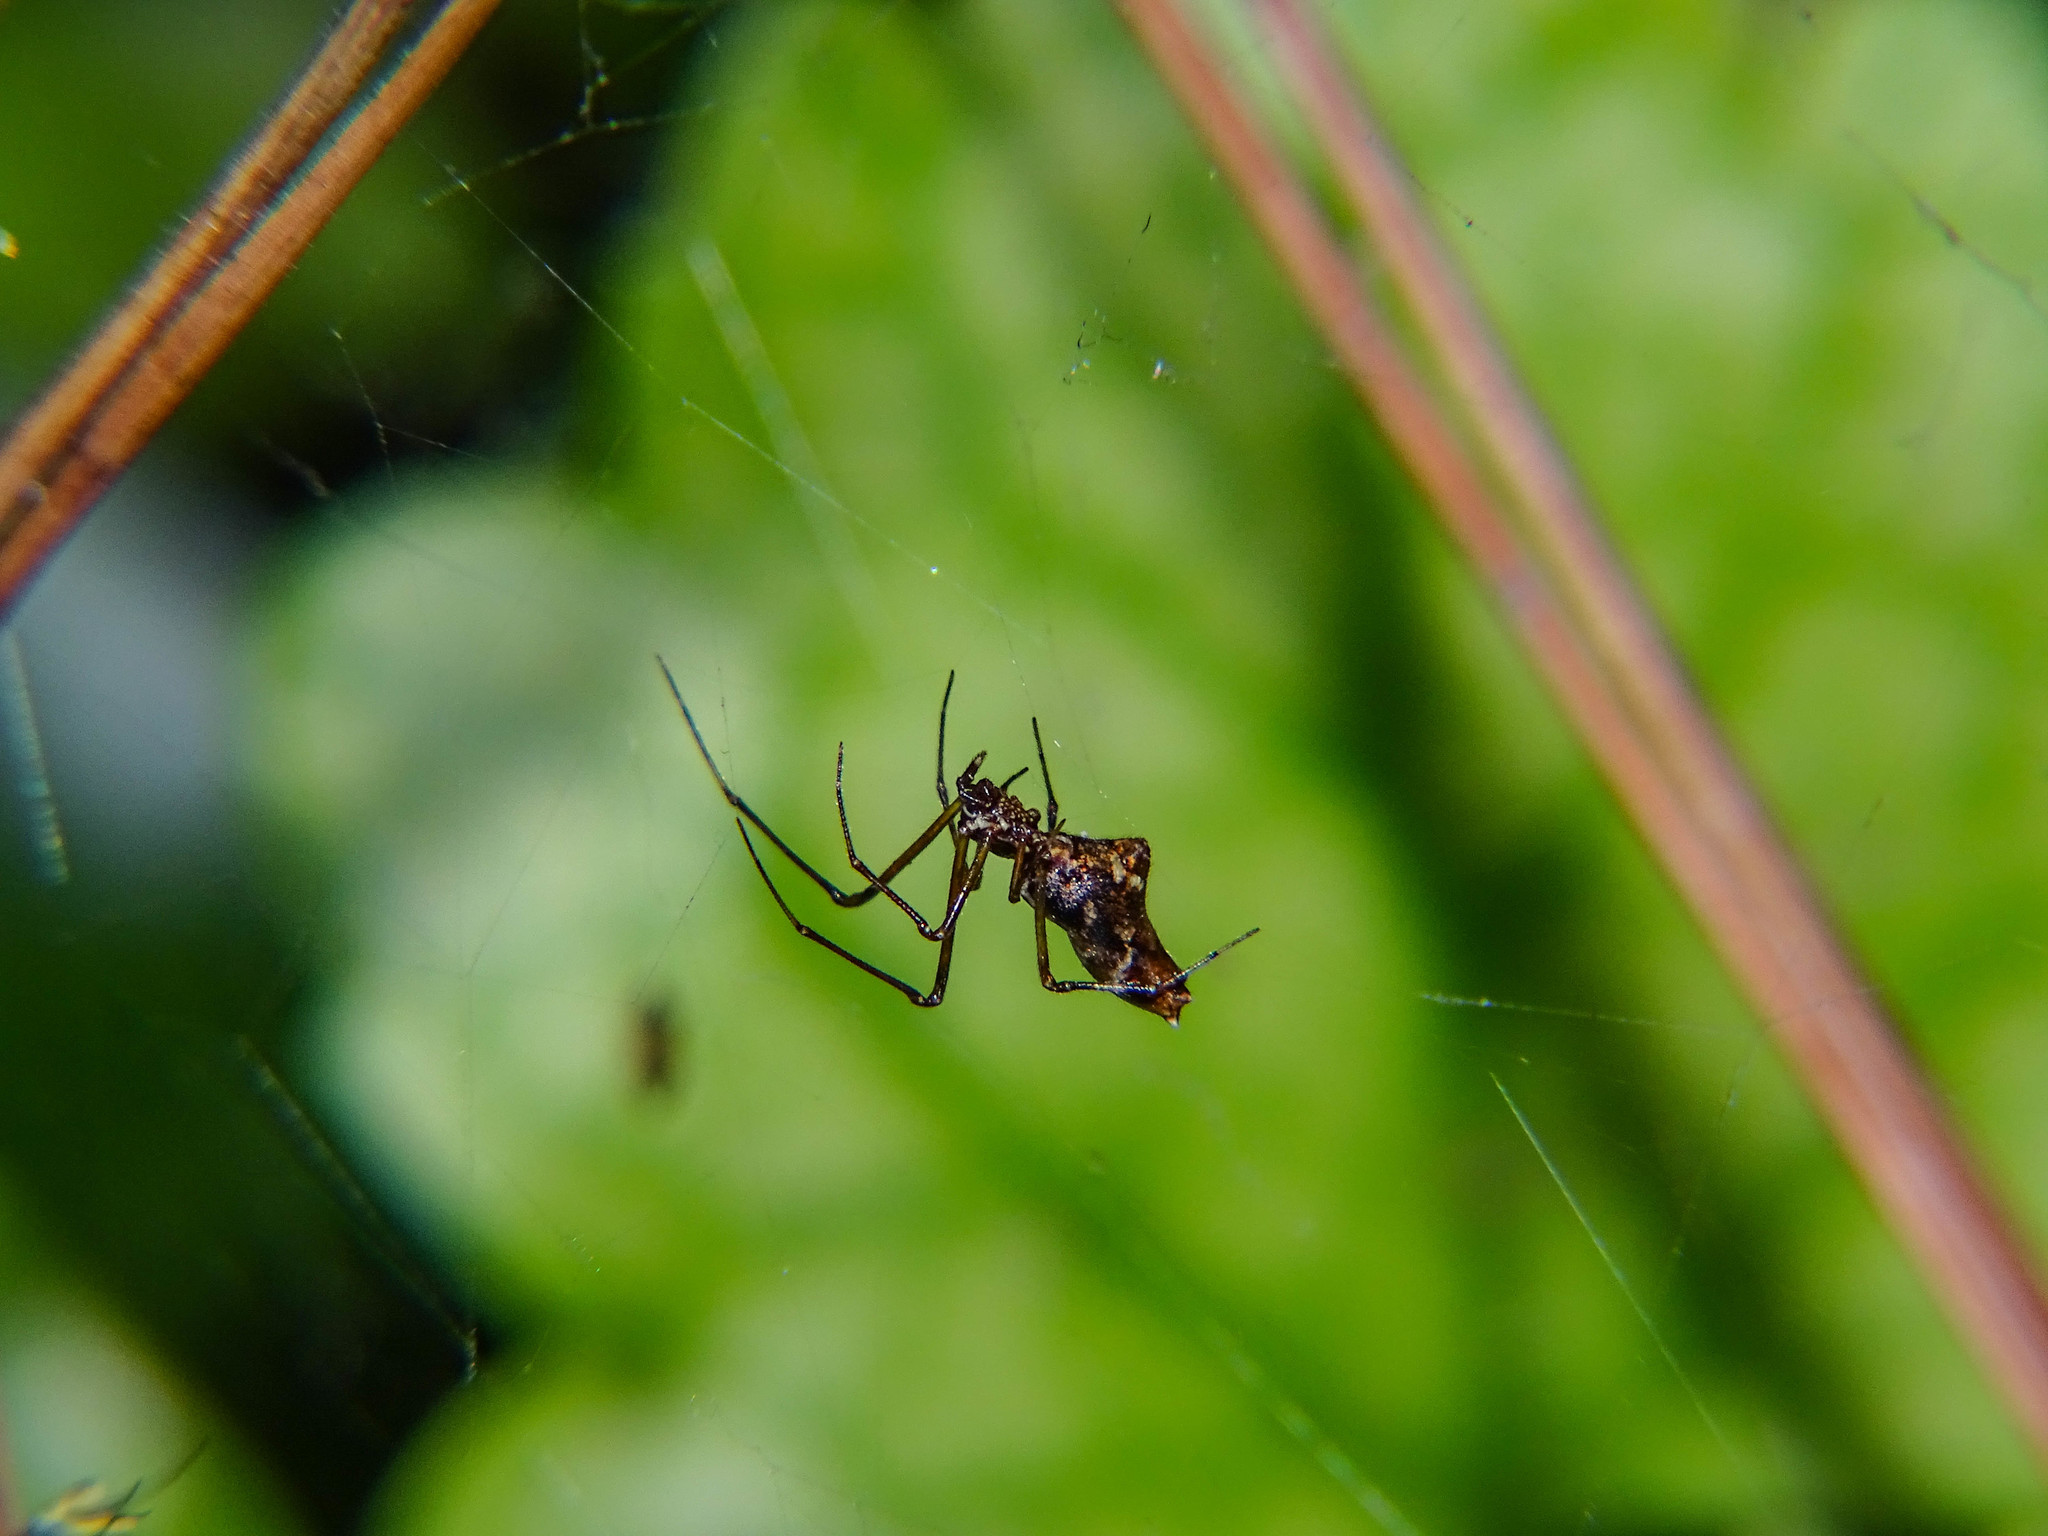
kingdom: Animalia
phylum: Arthropoda
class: Arachnida
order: Araneae
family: Theridiidae
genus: Neospintharus
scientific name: Neospintharus syriacus
